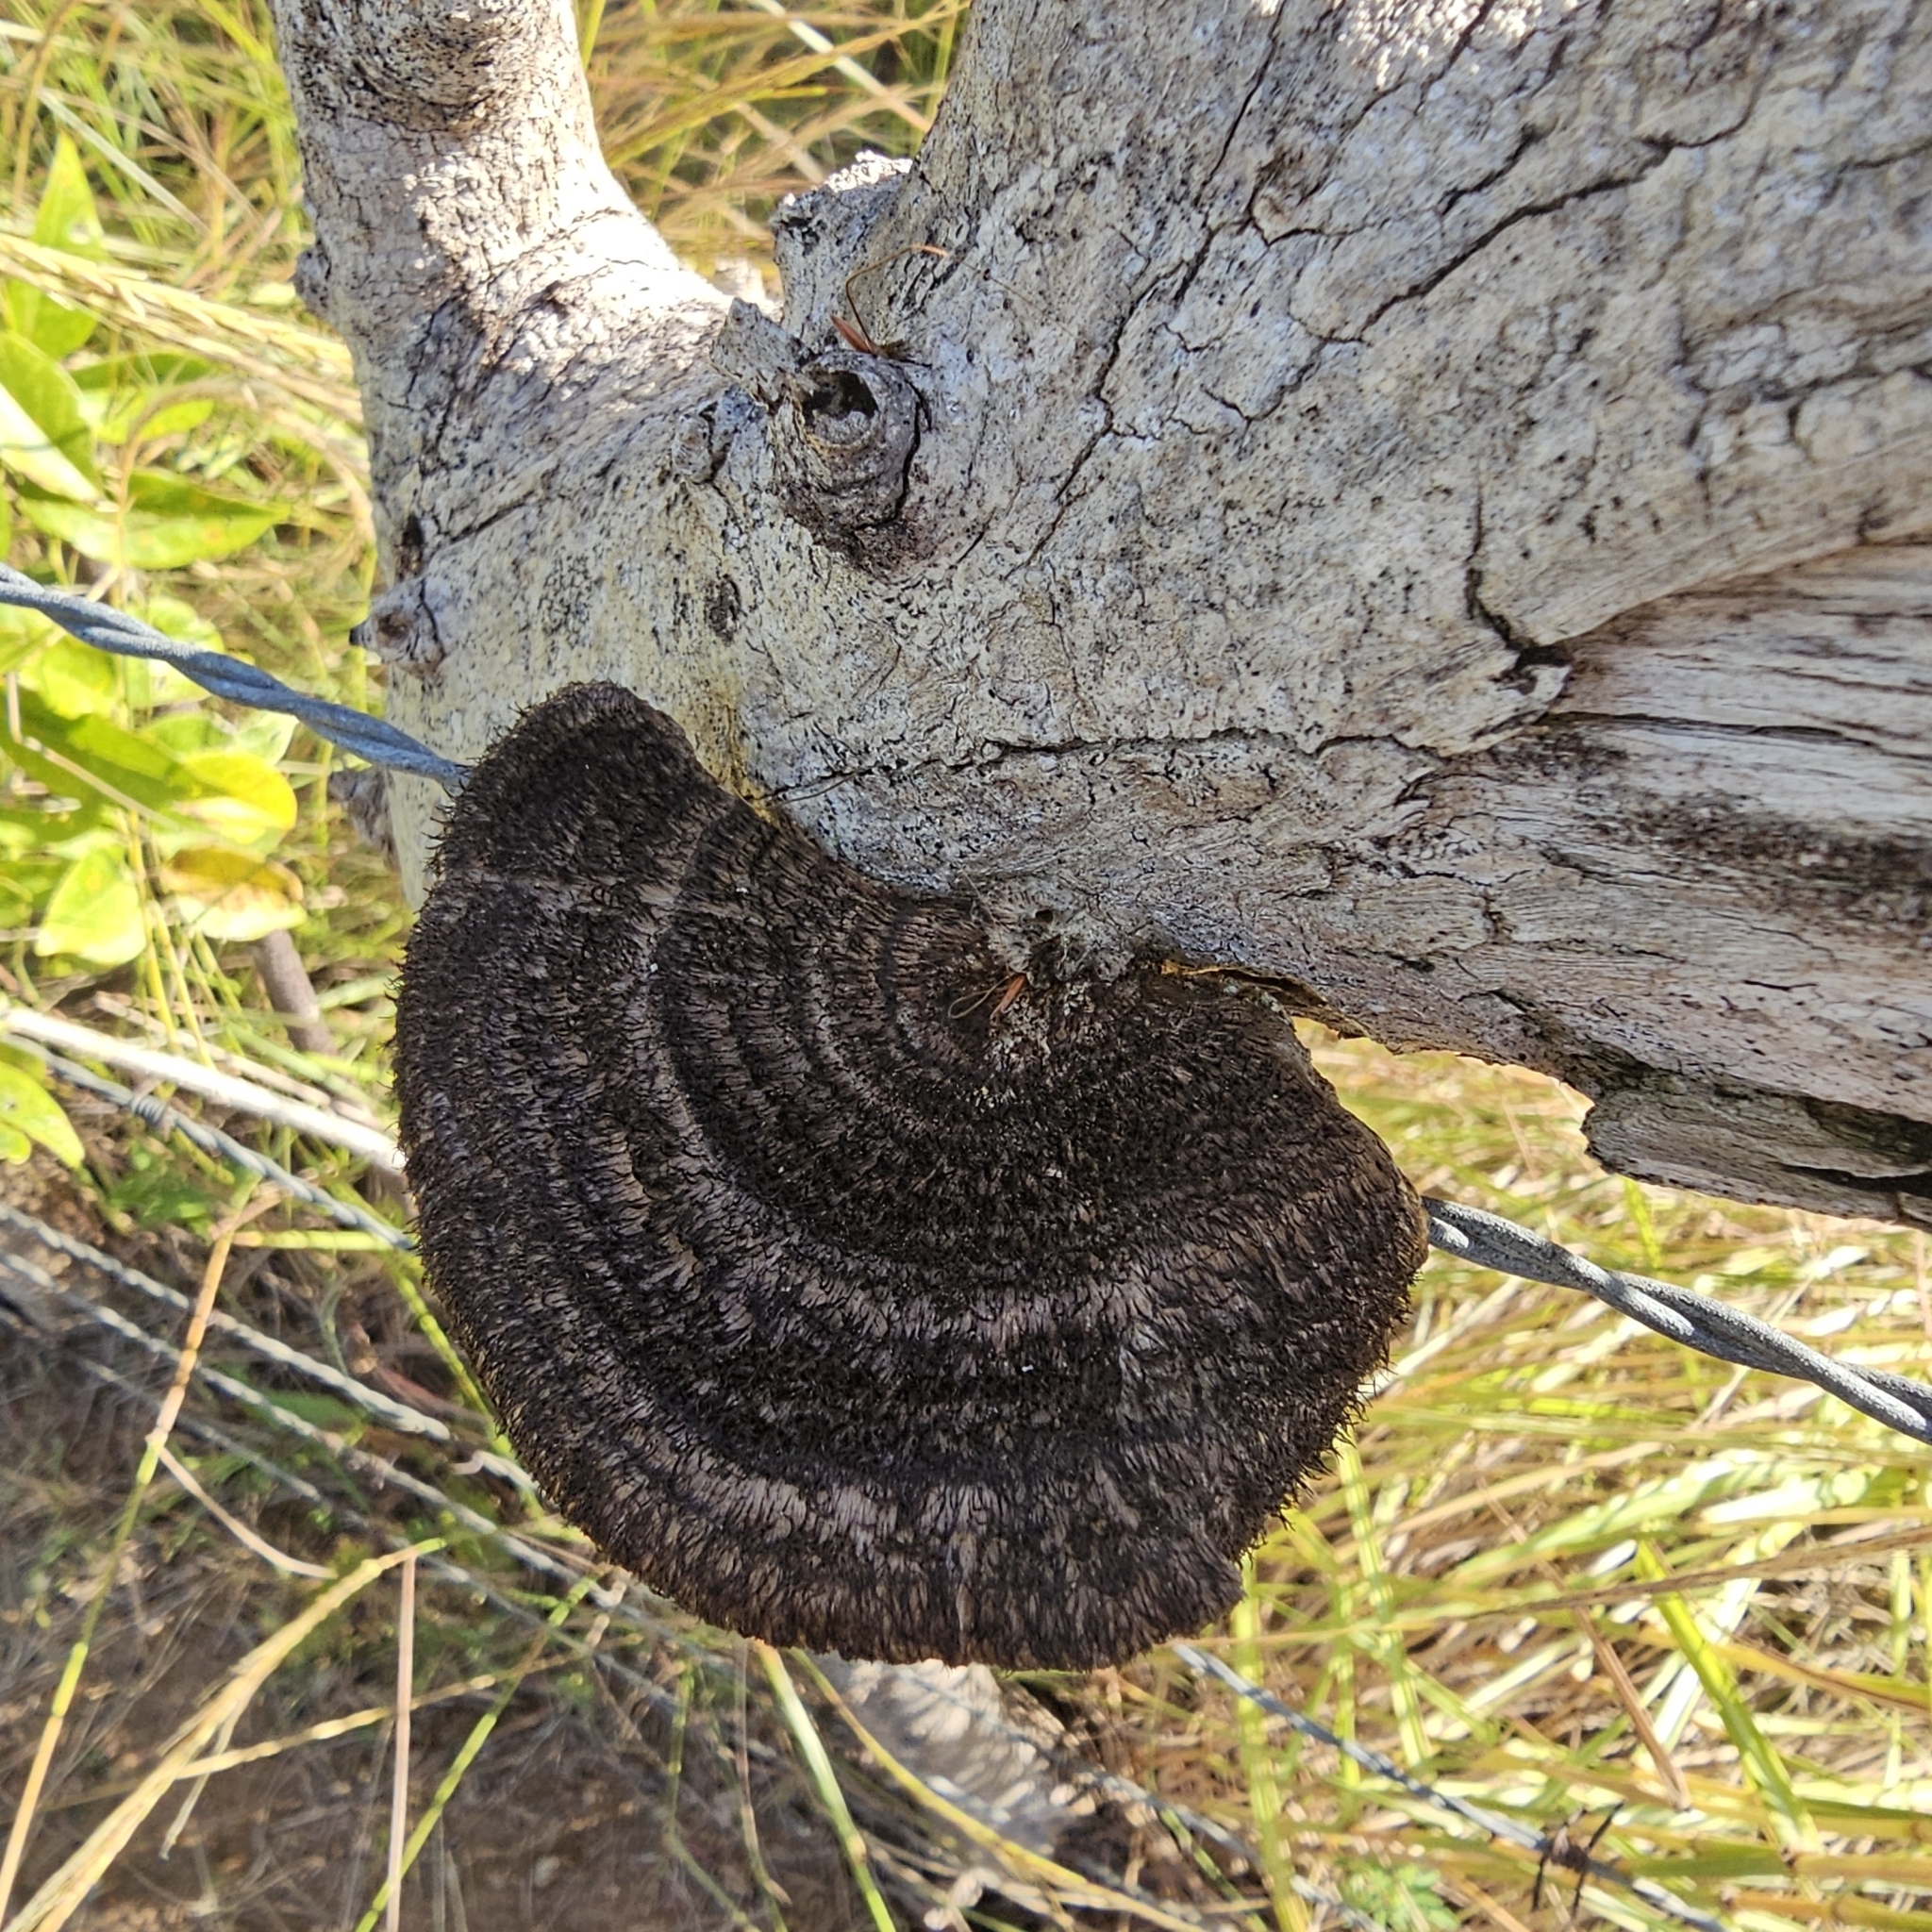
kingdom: Fungi
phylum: Basidiomycota
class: Agaricomycetes
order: Polyporales
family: Cerrenaceae
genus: Cerrena
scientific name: Cerrena hydnoides
